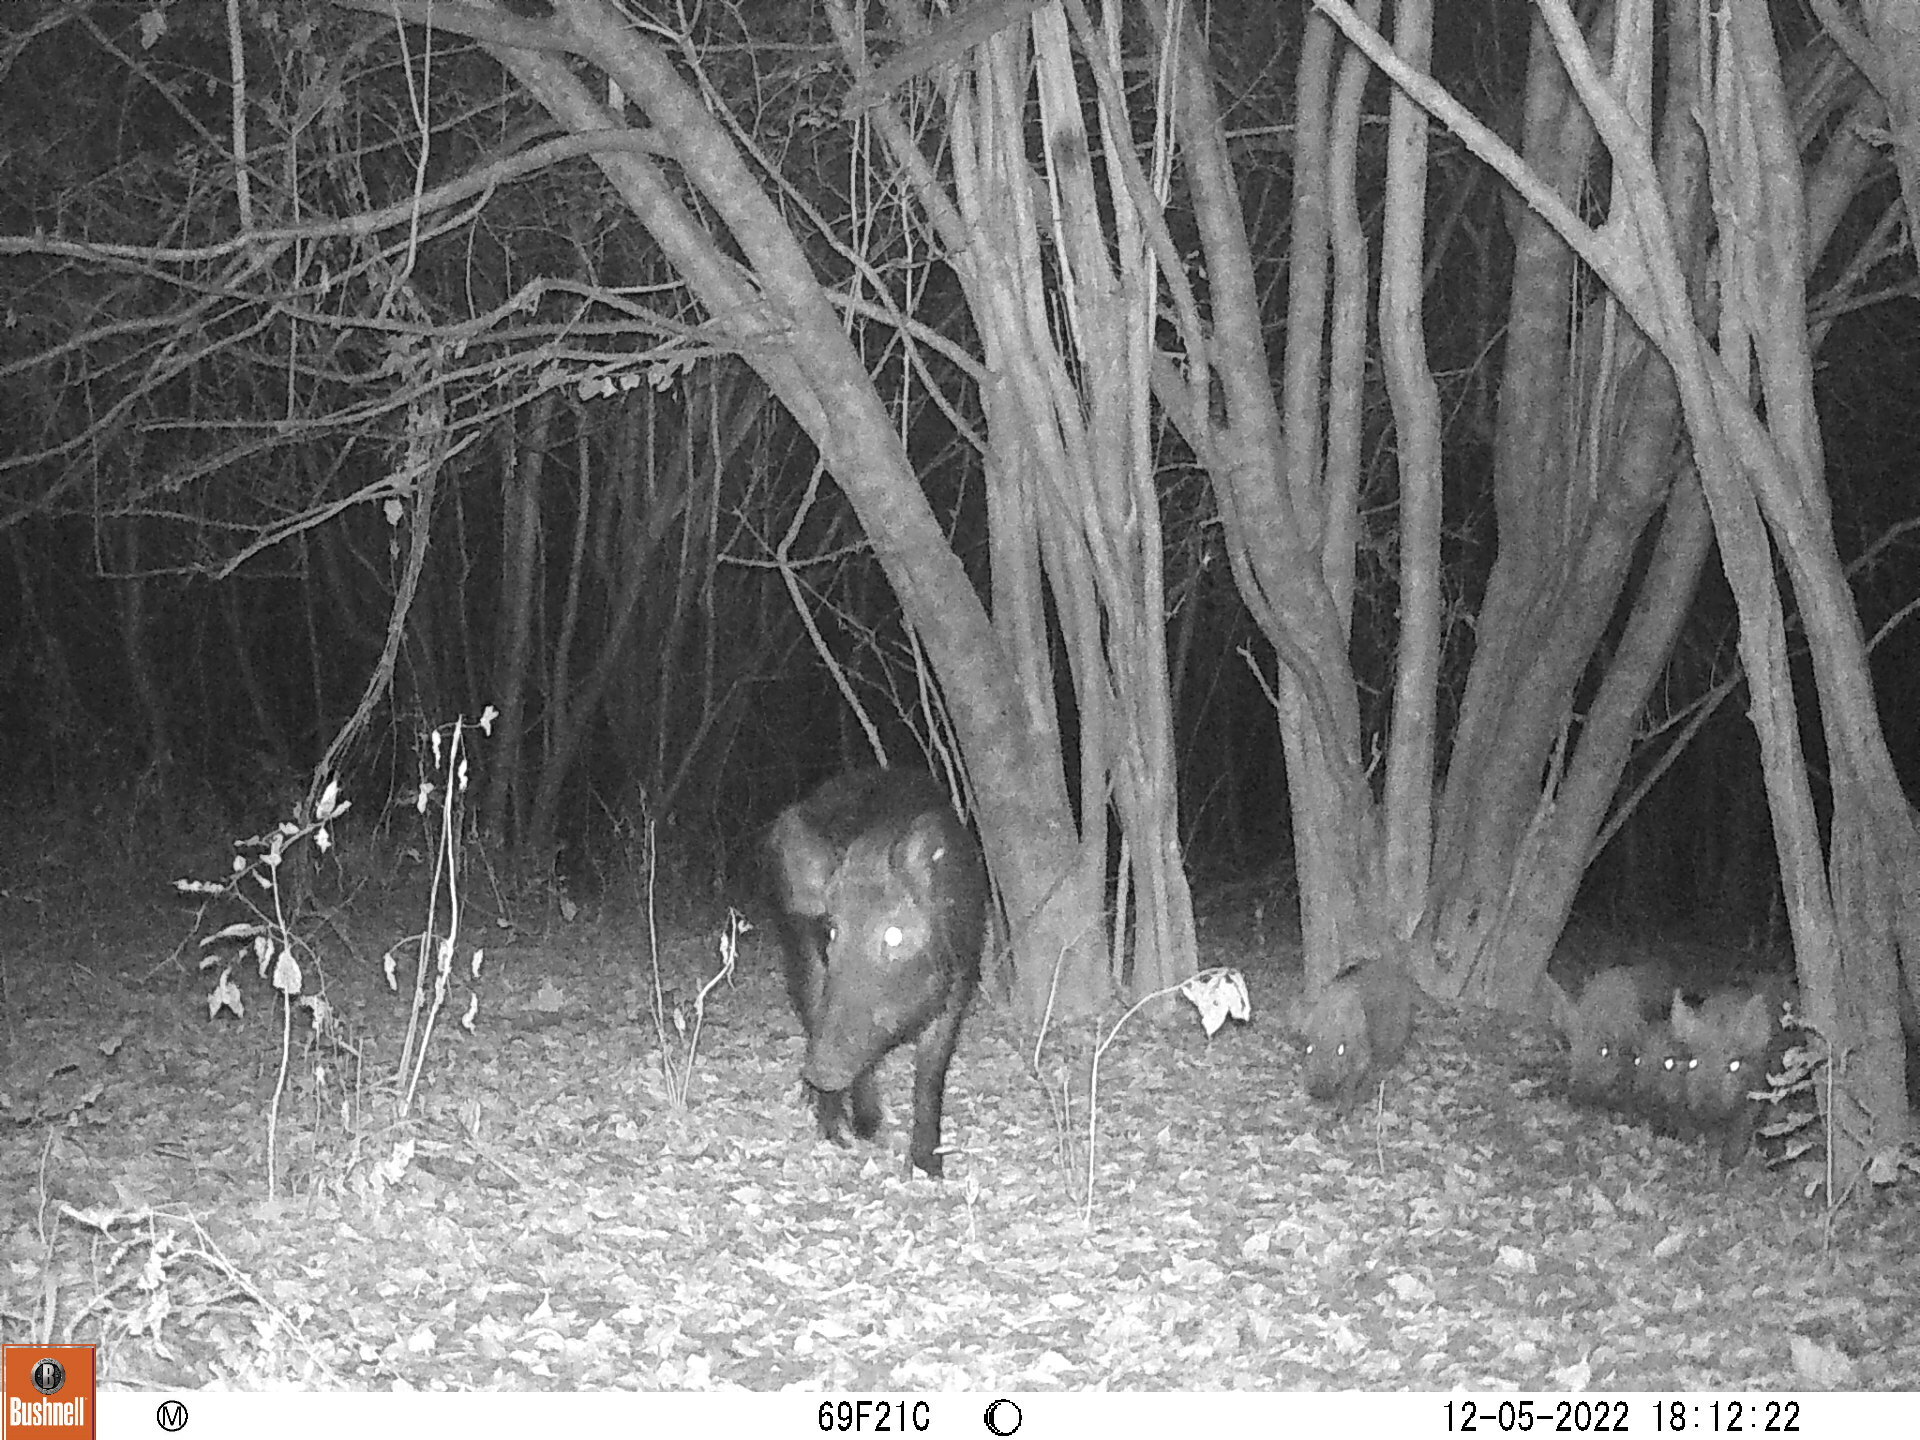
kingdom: Animalia
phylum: Chordata
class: Mammalia
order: Artiodactyla
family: Suidae
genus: Sus
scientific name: Sus scrofa
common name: Wild boar
